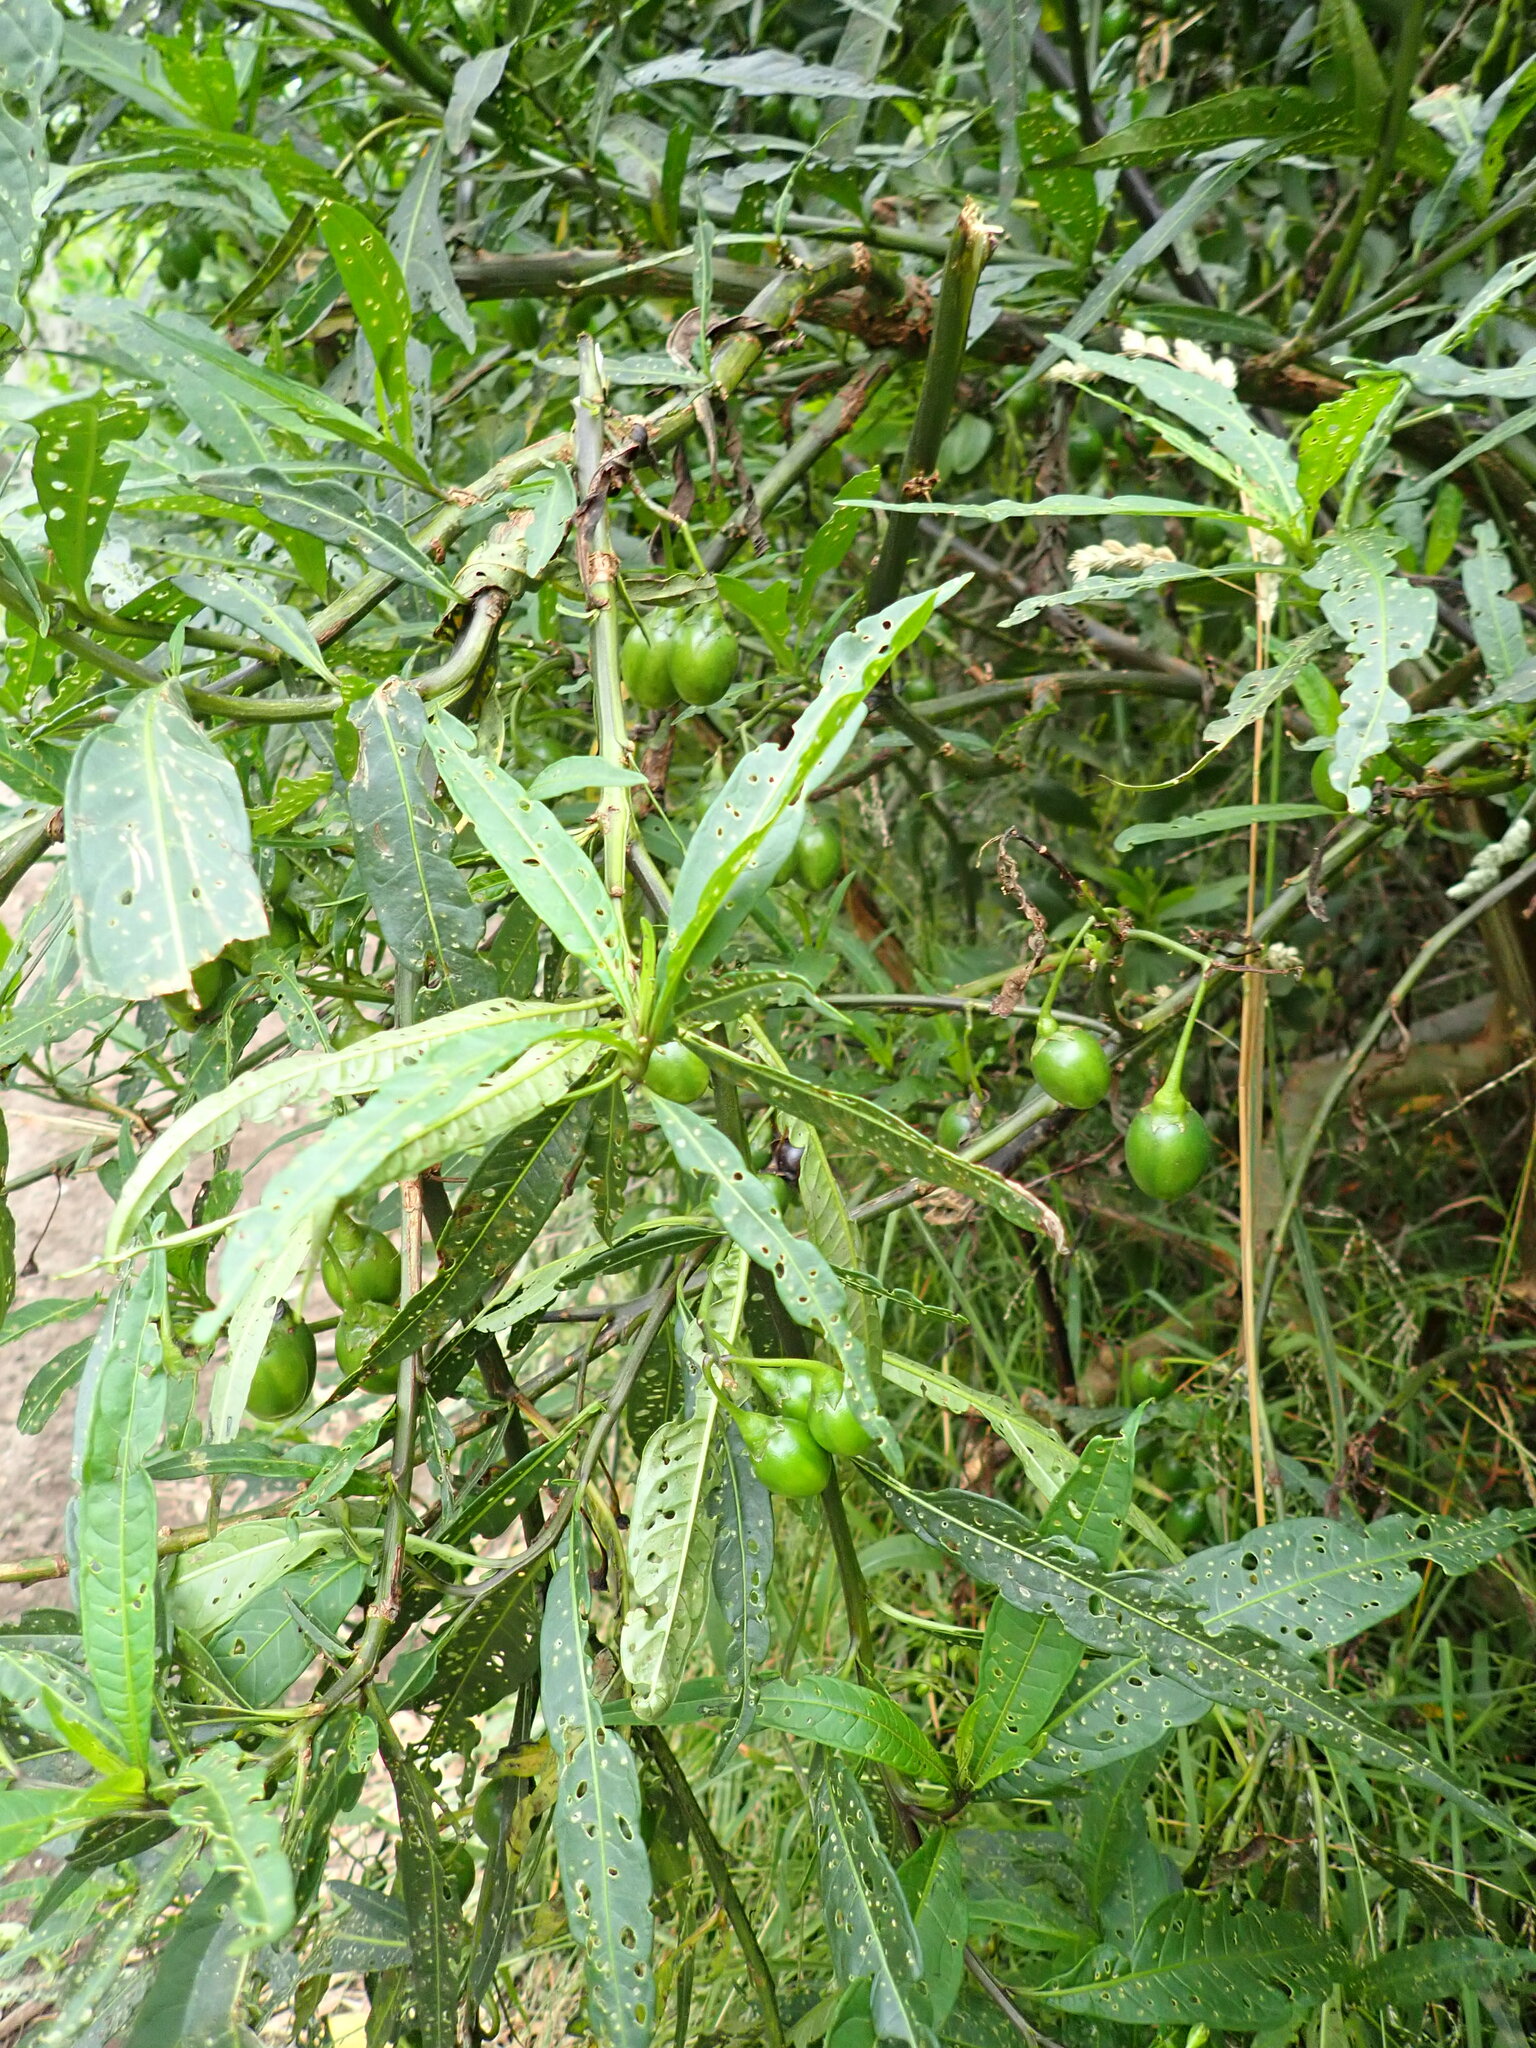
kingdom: Plantae
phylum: Tracheophyta
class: Magnoliopsida
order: Solanales
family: Solanaceae
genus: Solanum
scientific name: Solanum laciniatum
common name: Kangaroo-apple
